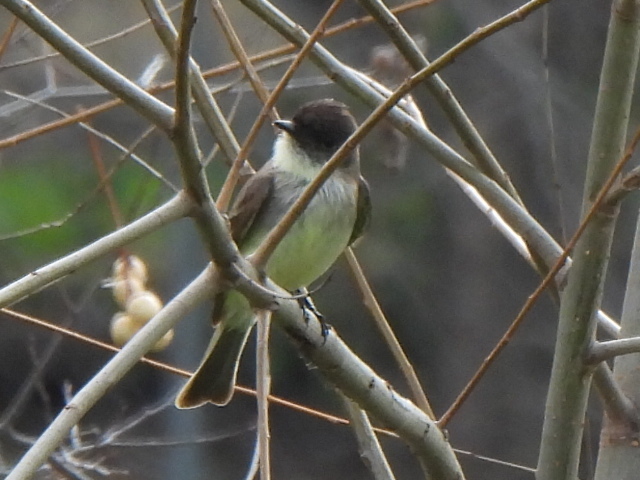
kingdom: Animalia
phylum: Chordata
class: Aves
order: Passeriformes
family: Tyrannidae
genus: Sayornis
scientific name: Sayornis phoebe
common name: Eastern phoebe
